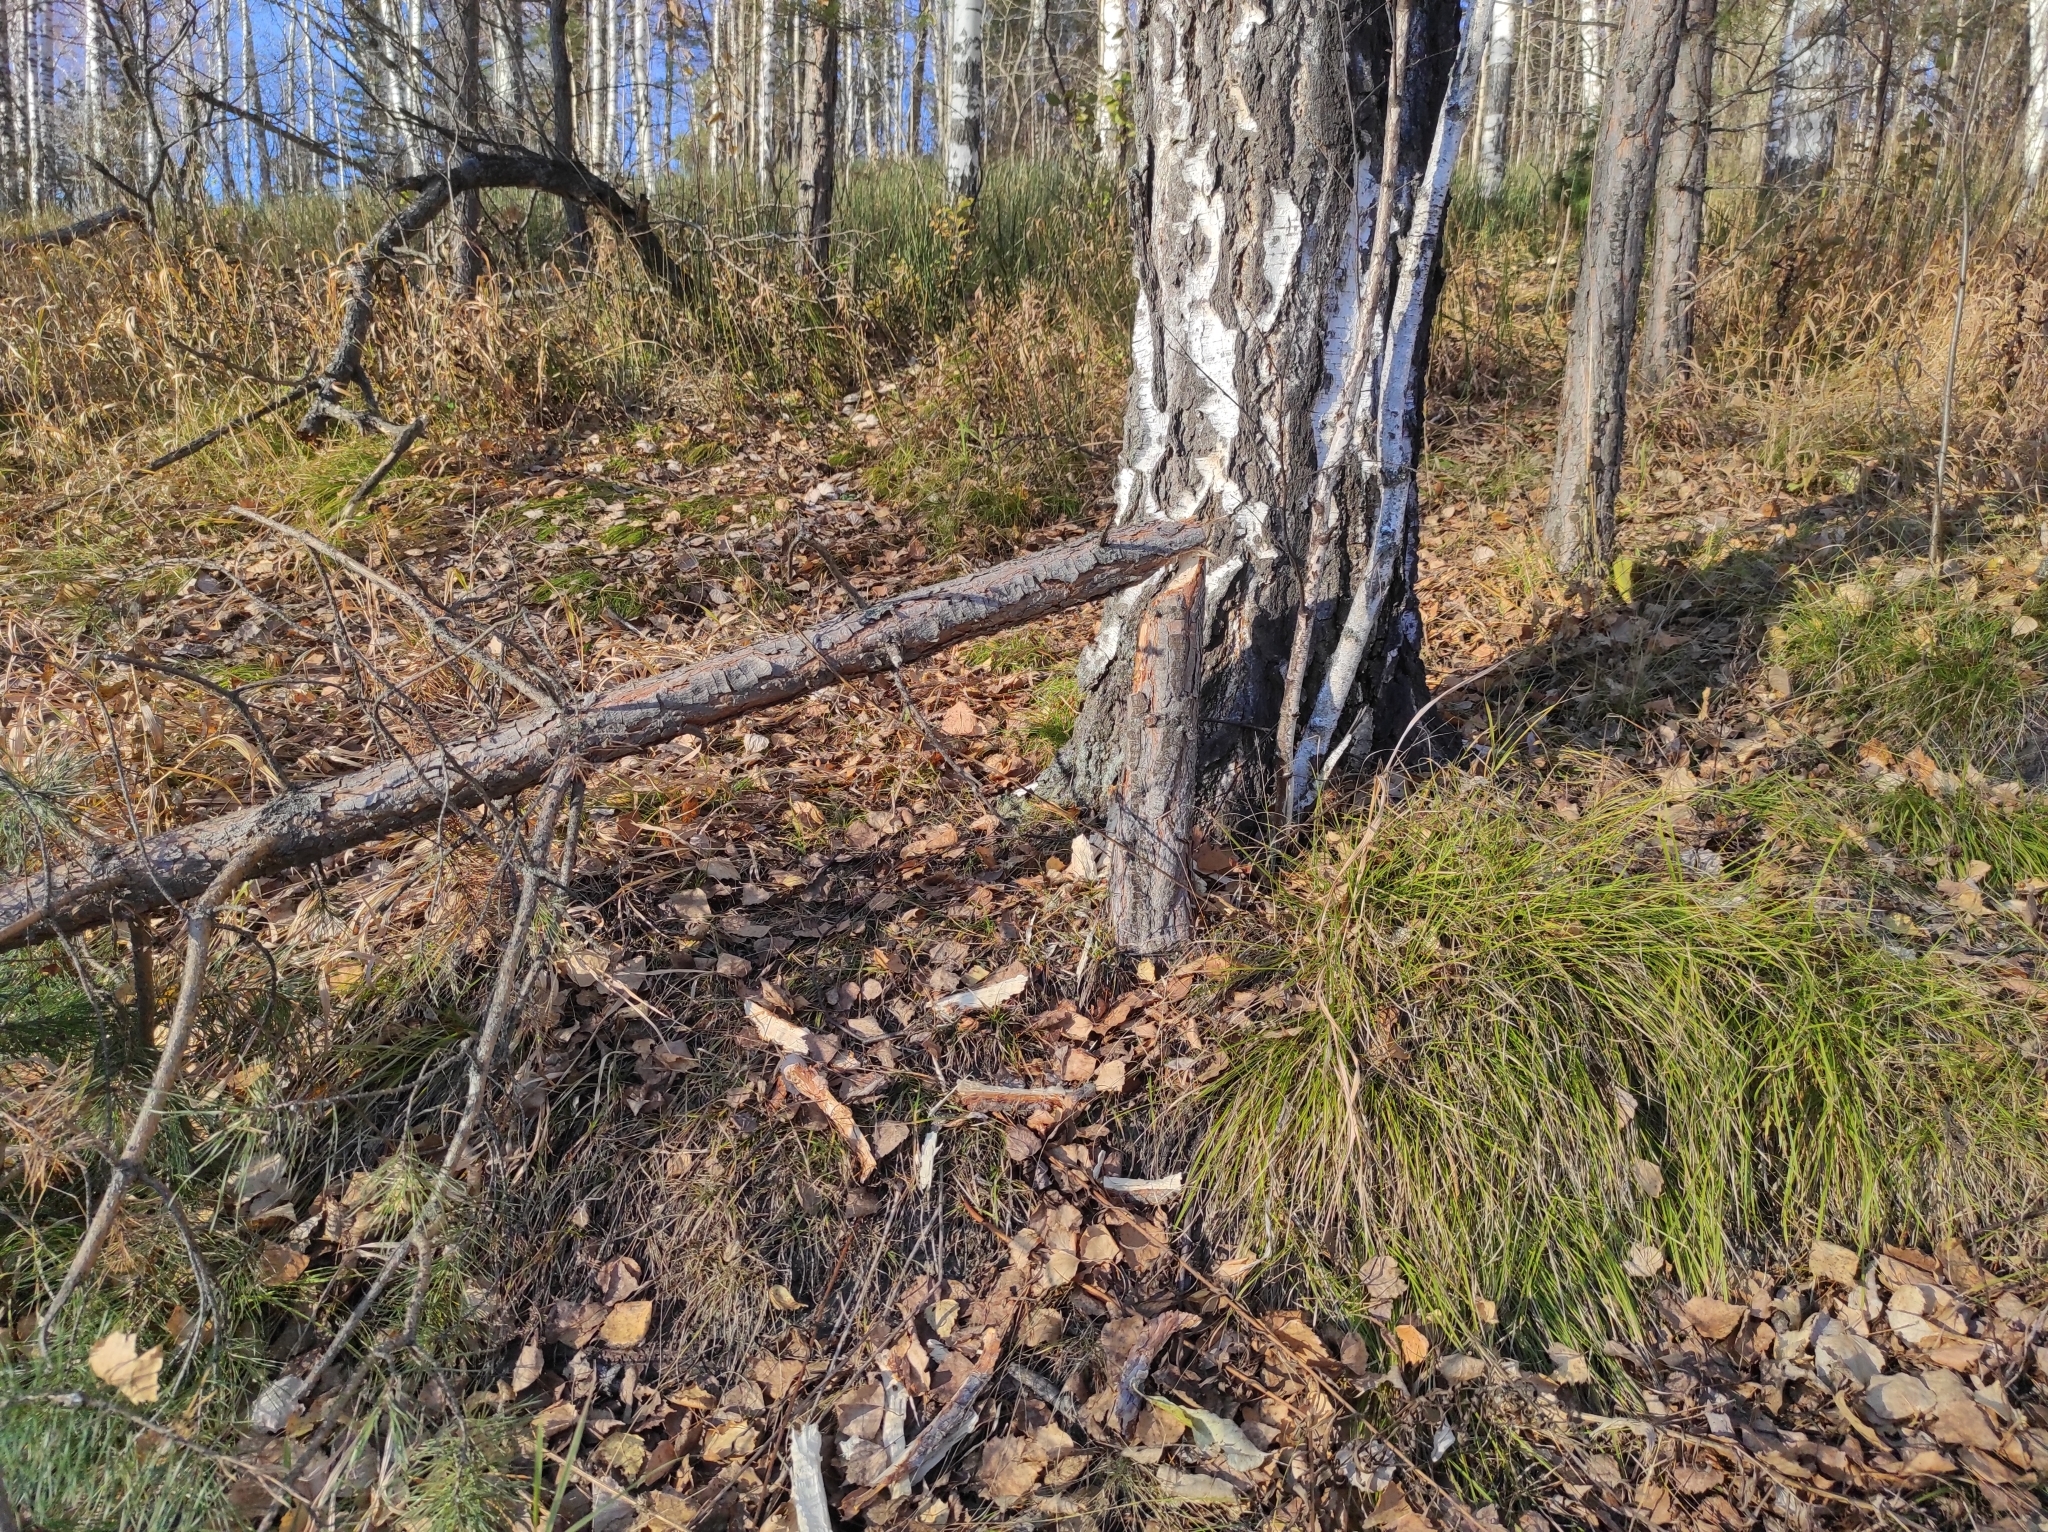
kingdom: Plantae
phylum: Tracheophyta
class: Pinopsida
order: Pinales
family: Pinaceae
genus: Pinus
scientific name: Pinus sylvestris
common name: Scots pine
